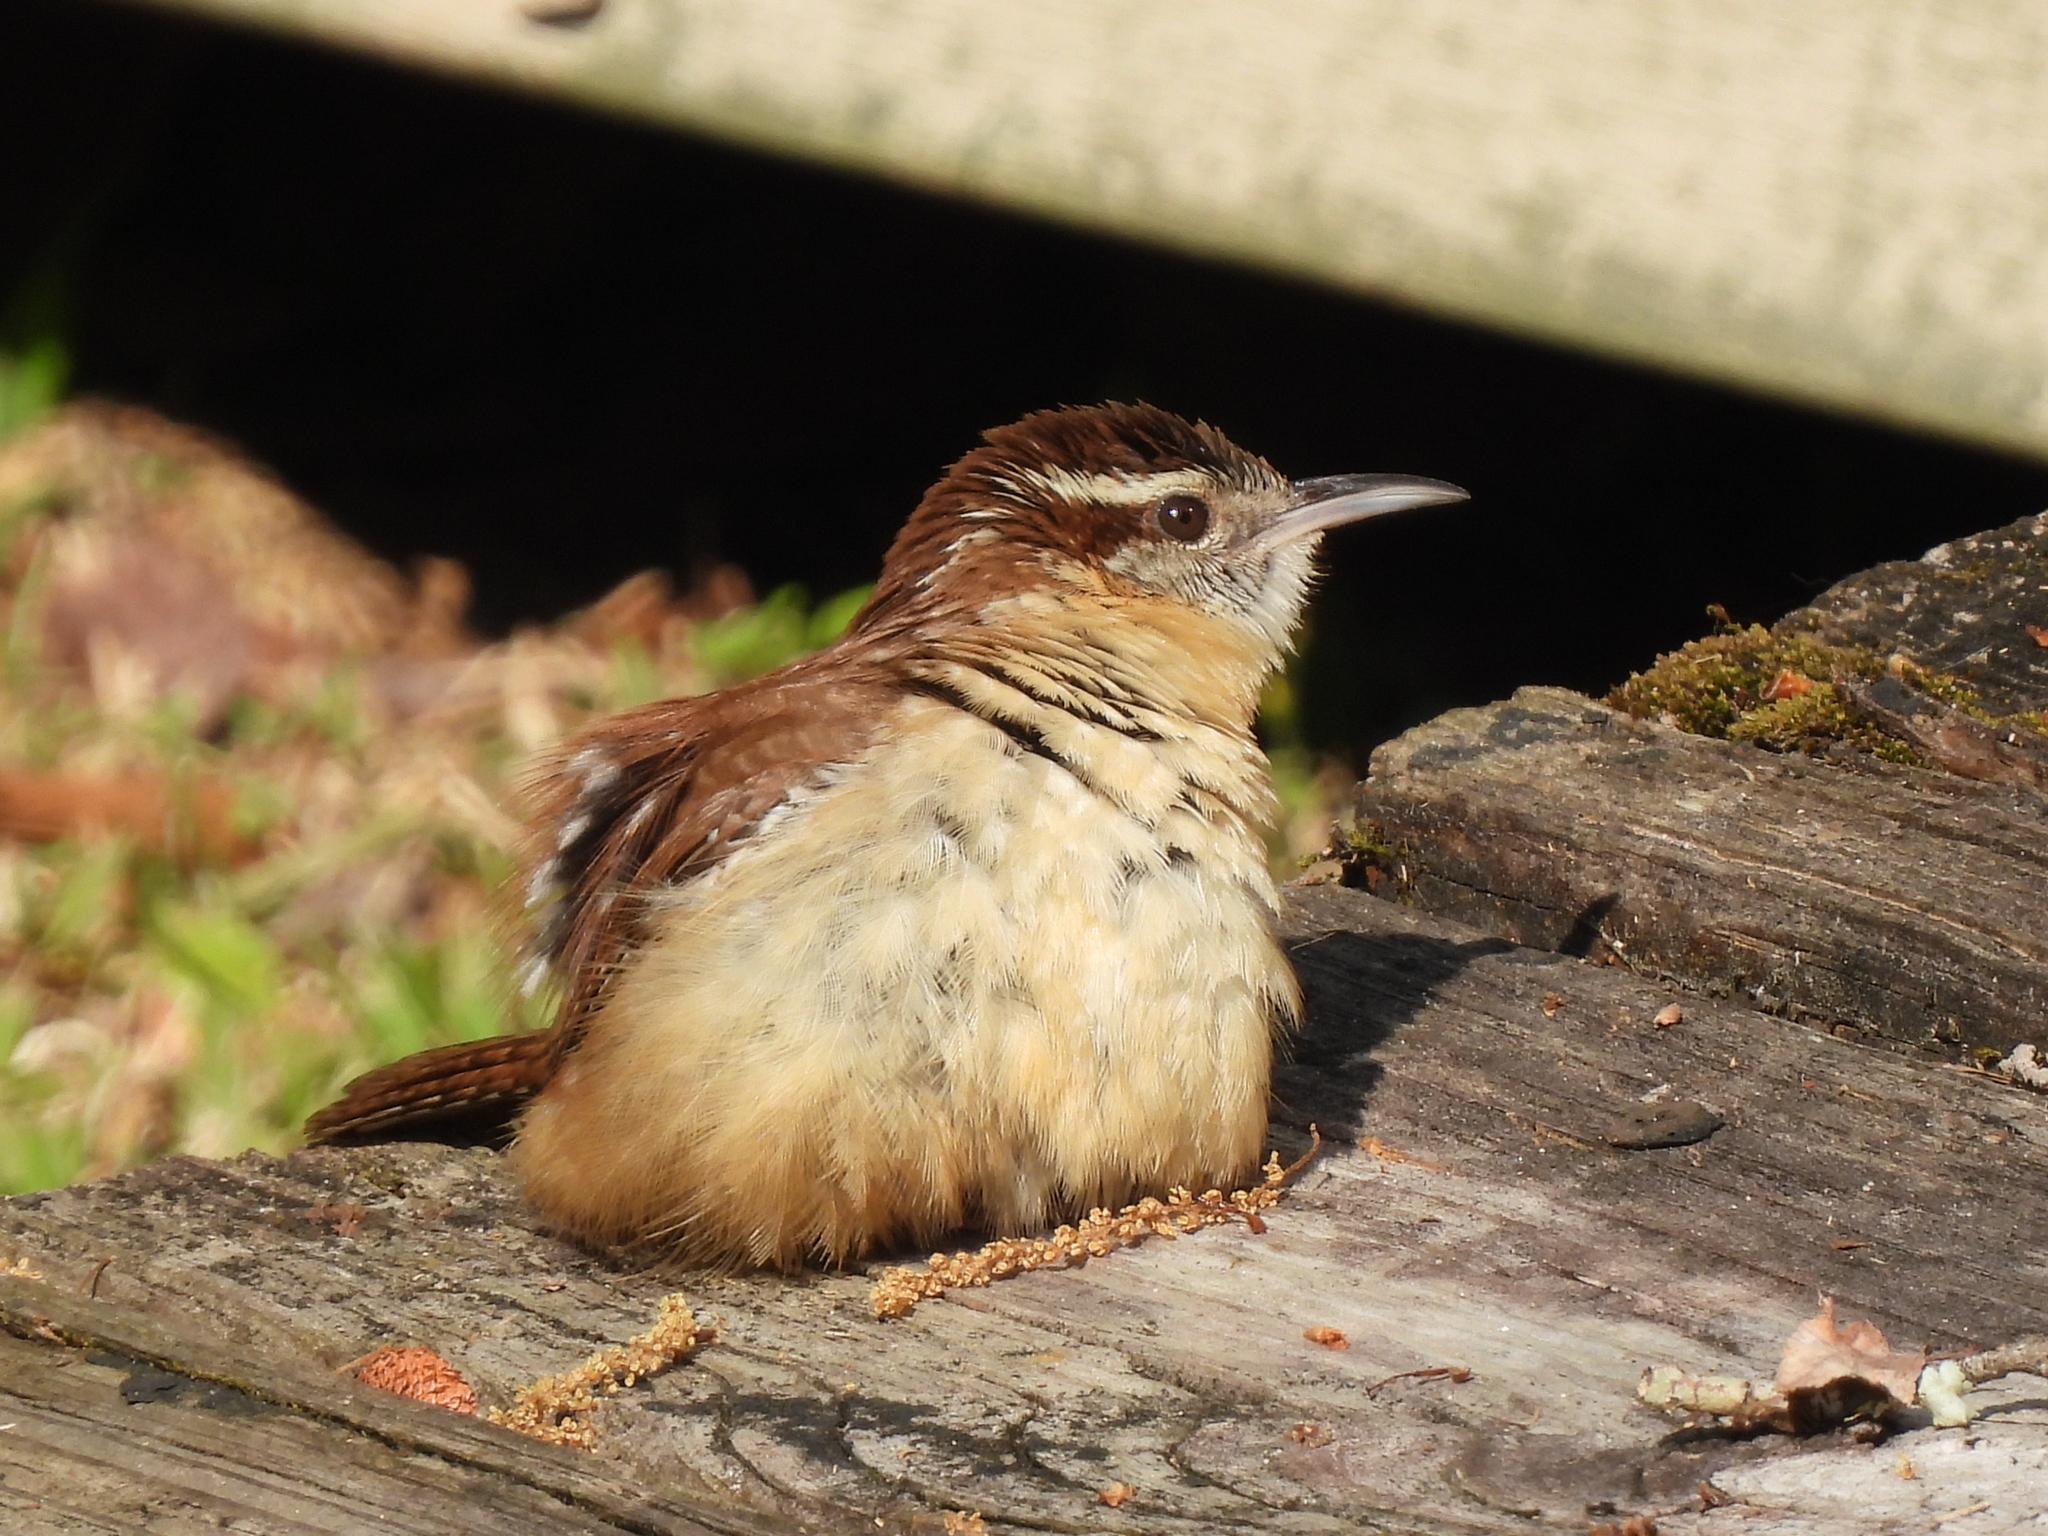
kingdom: Animalia
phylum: Chordata
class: Aves
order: Passeriformes
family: Troglodytidae
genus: Thryothorus
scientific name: Thryothorus ludovicianus
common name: Carolina wren
